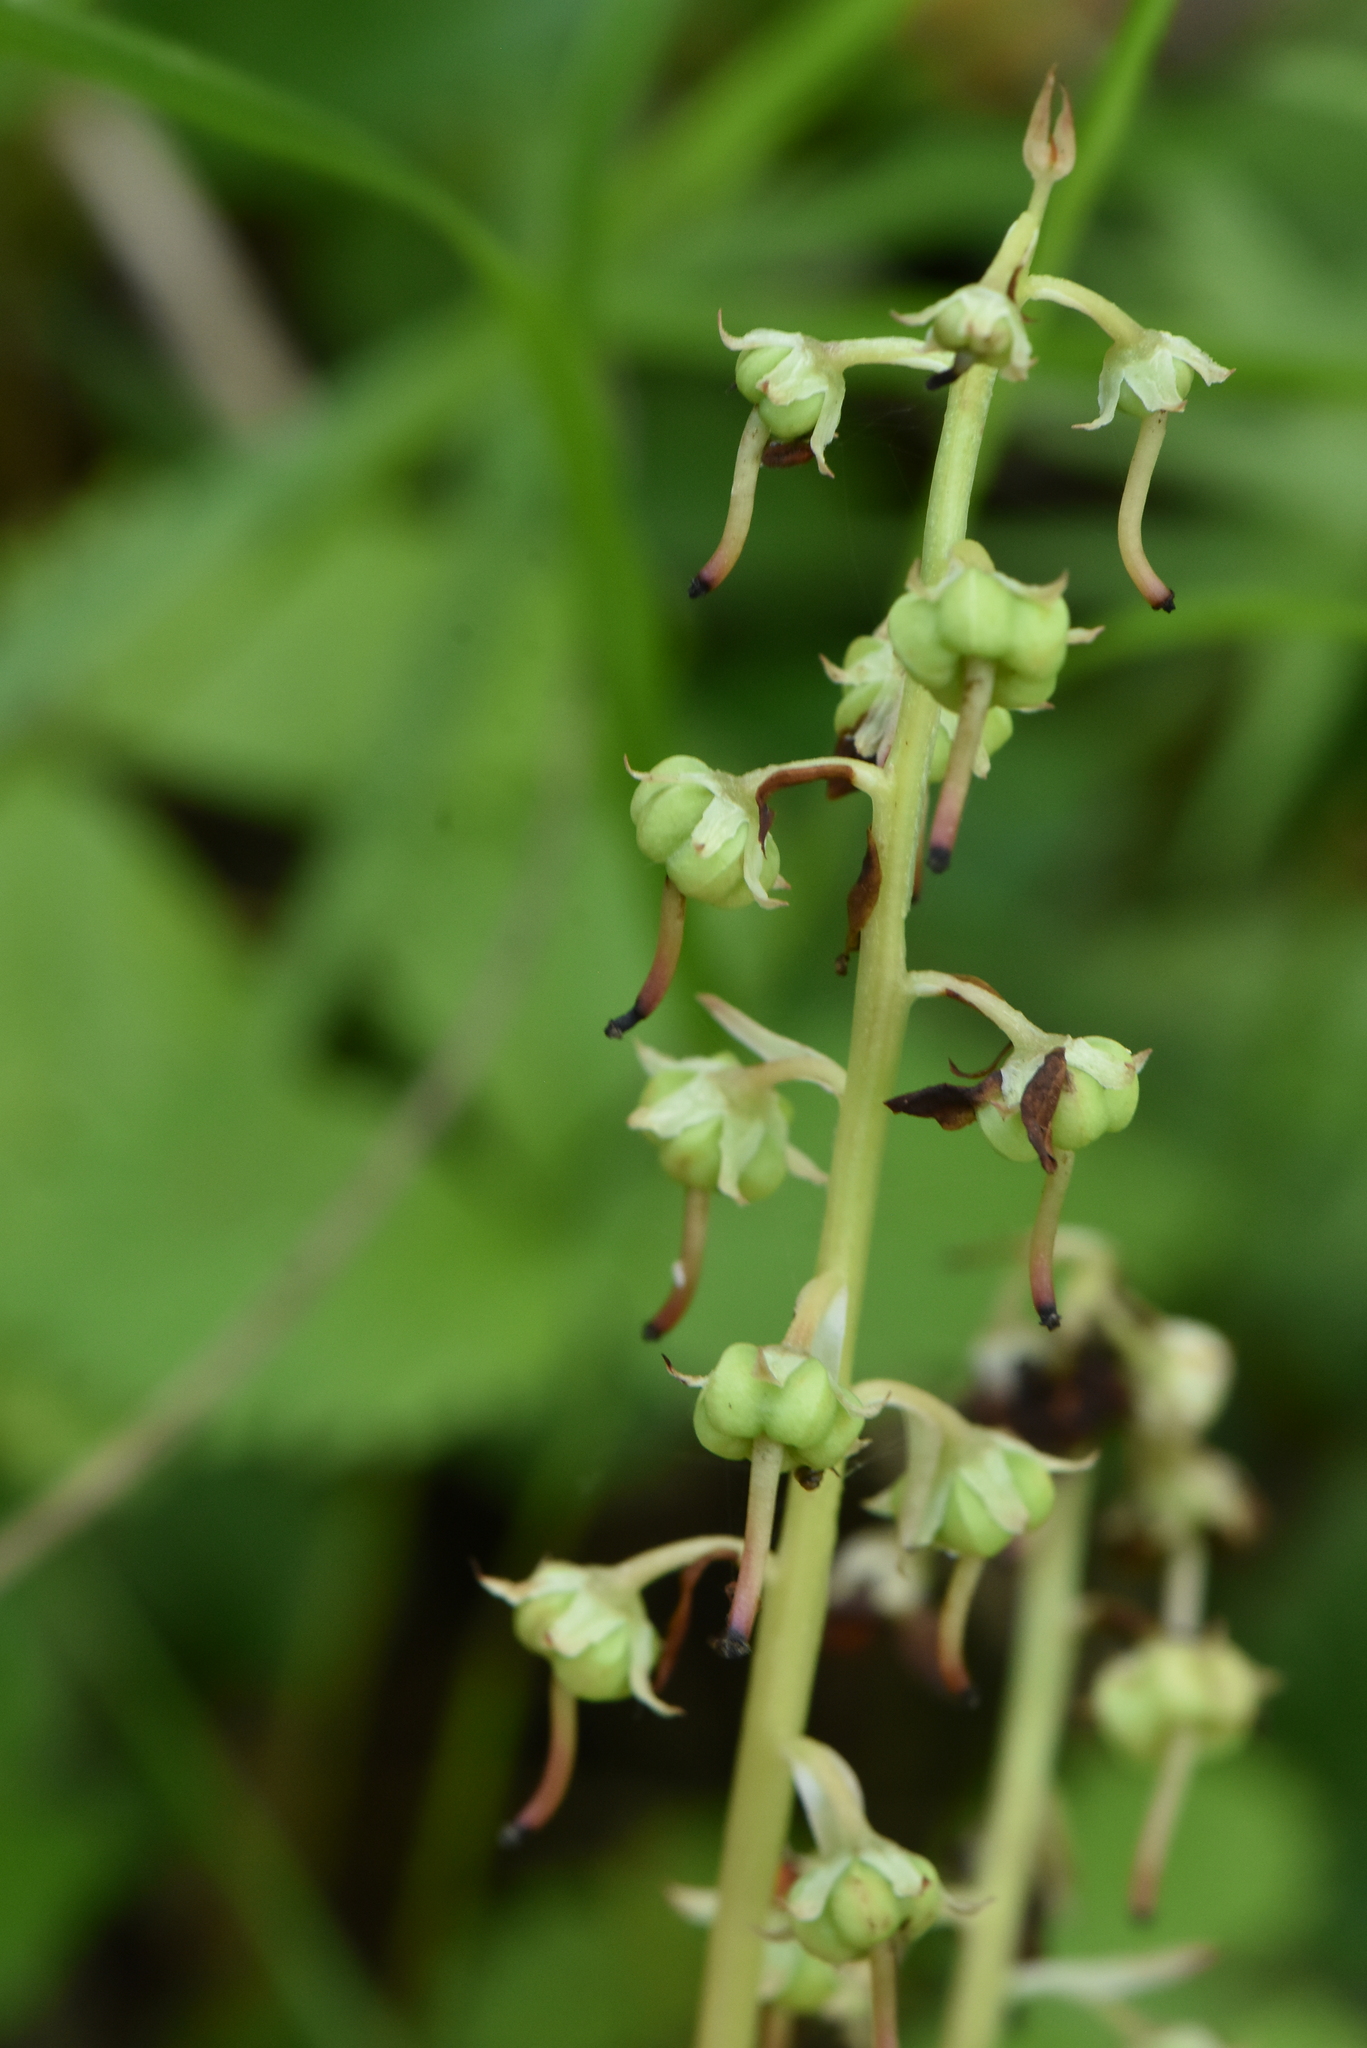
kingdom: Plantae
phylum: Tracheophyta
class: Magnoliopsida
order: Ericales
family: Ericaceae
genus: Pyrola
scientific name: Pyrola rotundifolia
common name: Round-leaved wintergreen
